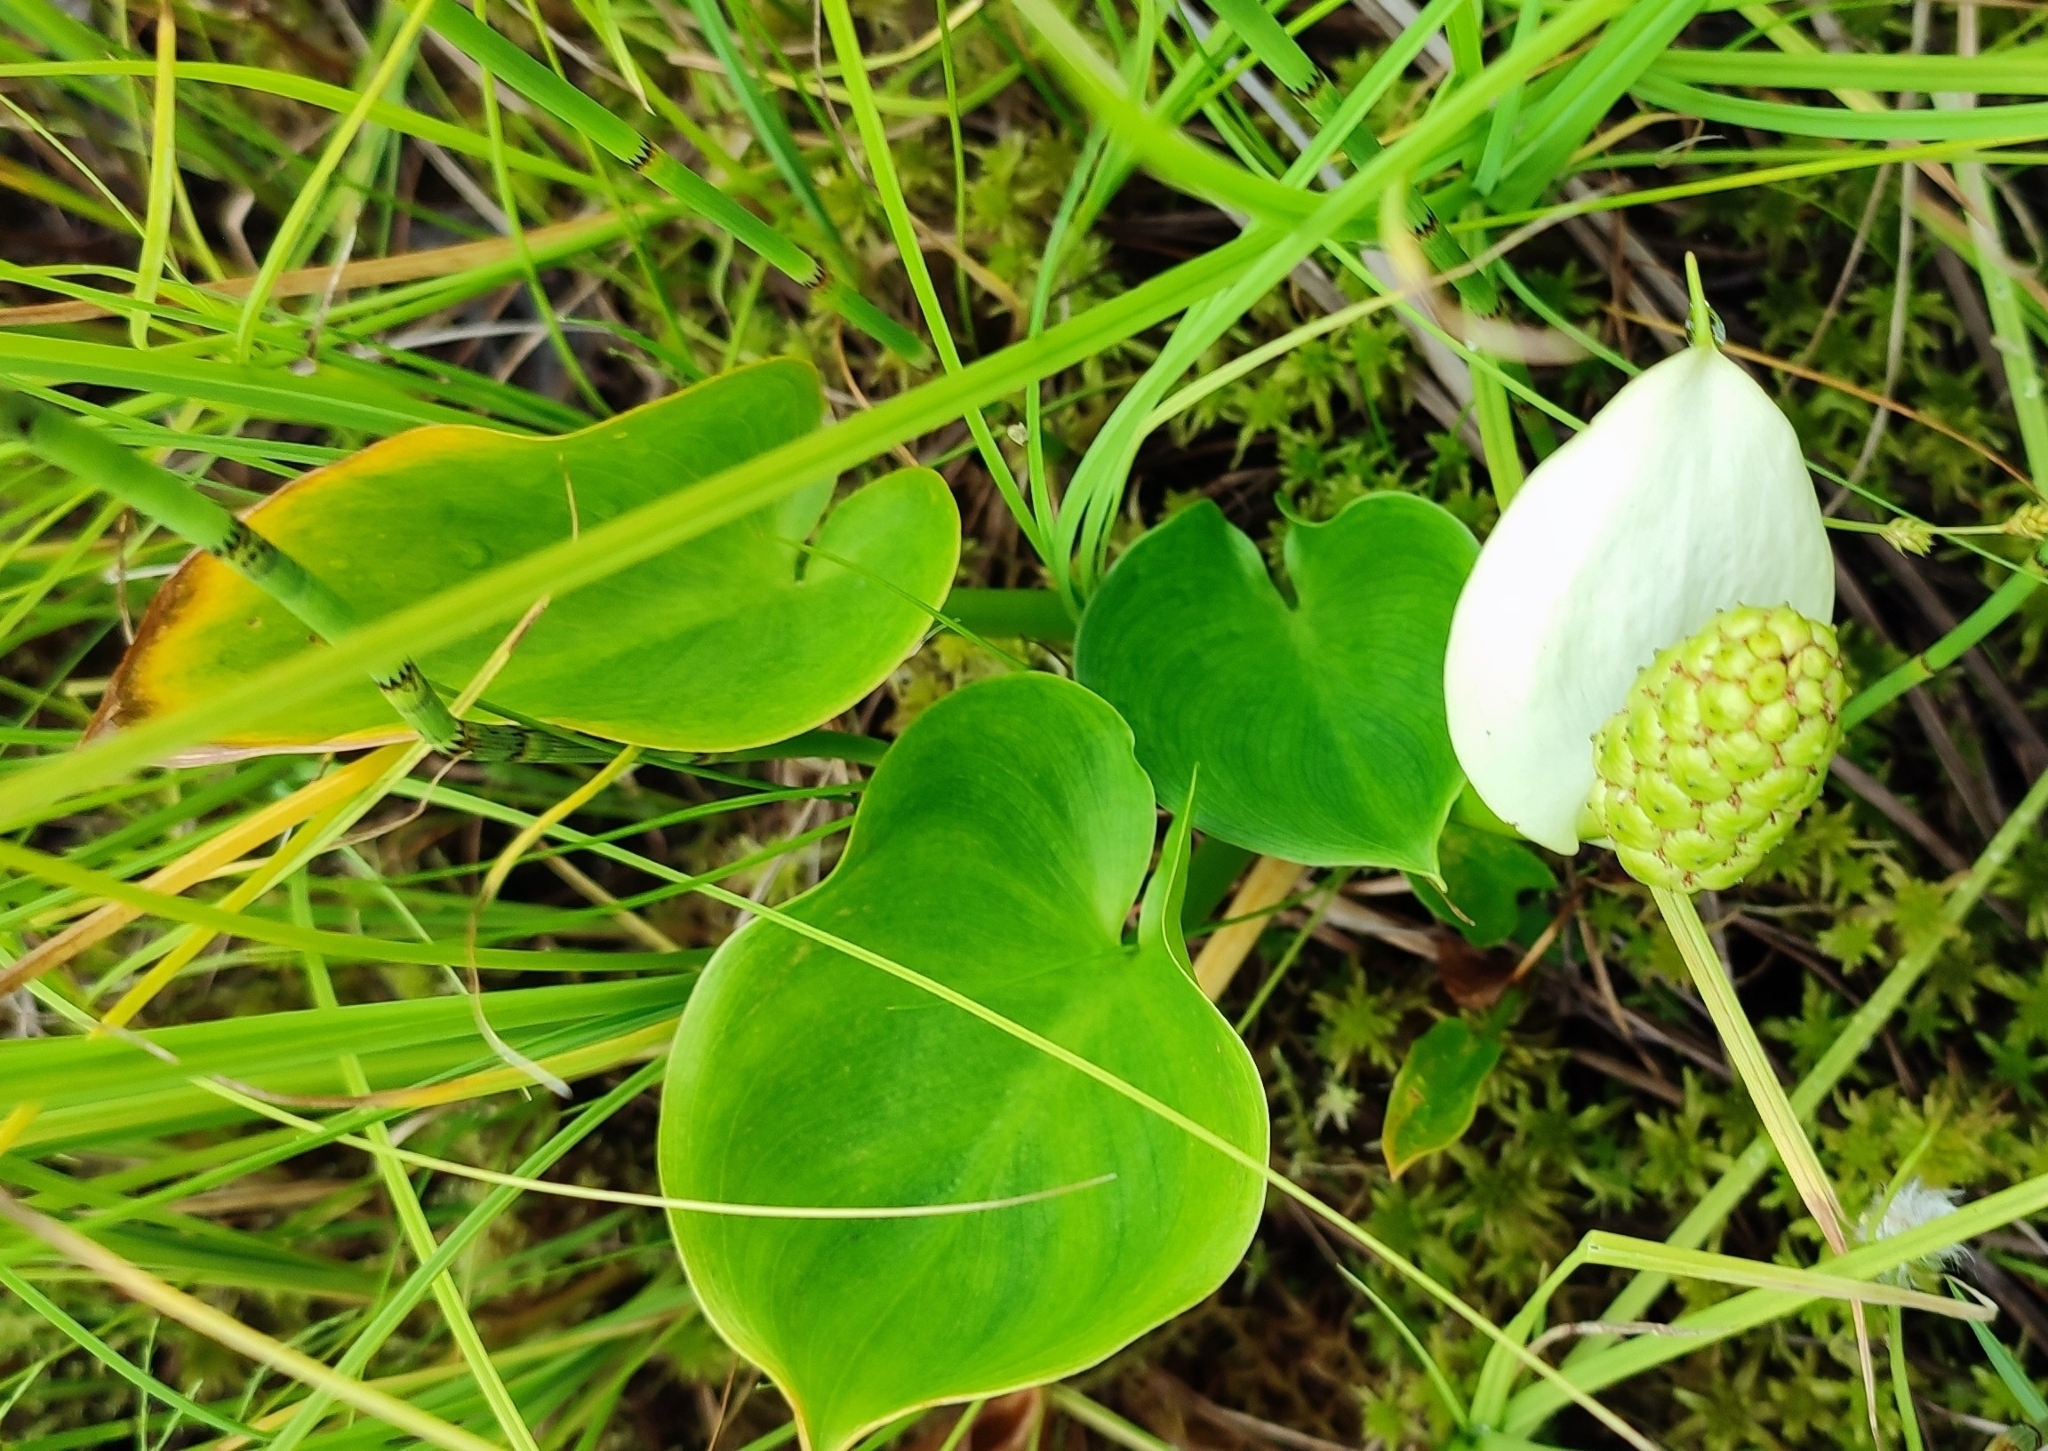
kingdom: Plantae
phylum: Tracheophyta
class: Liliopsida
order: Alismatales
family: Araceae
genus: Calla
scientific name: Calla palustris
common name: Bog arum
